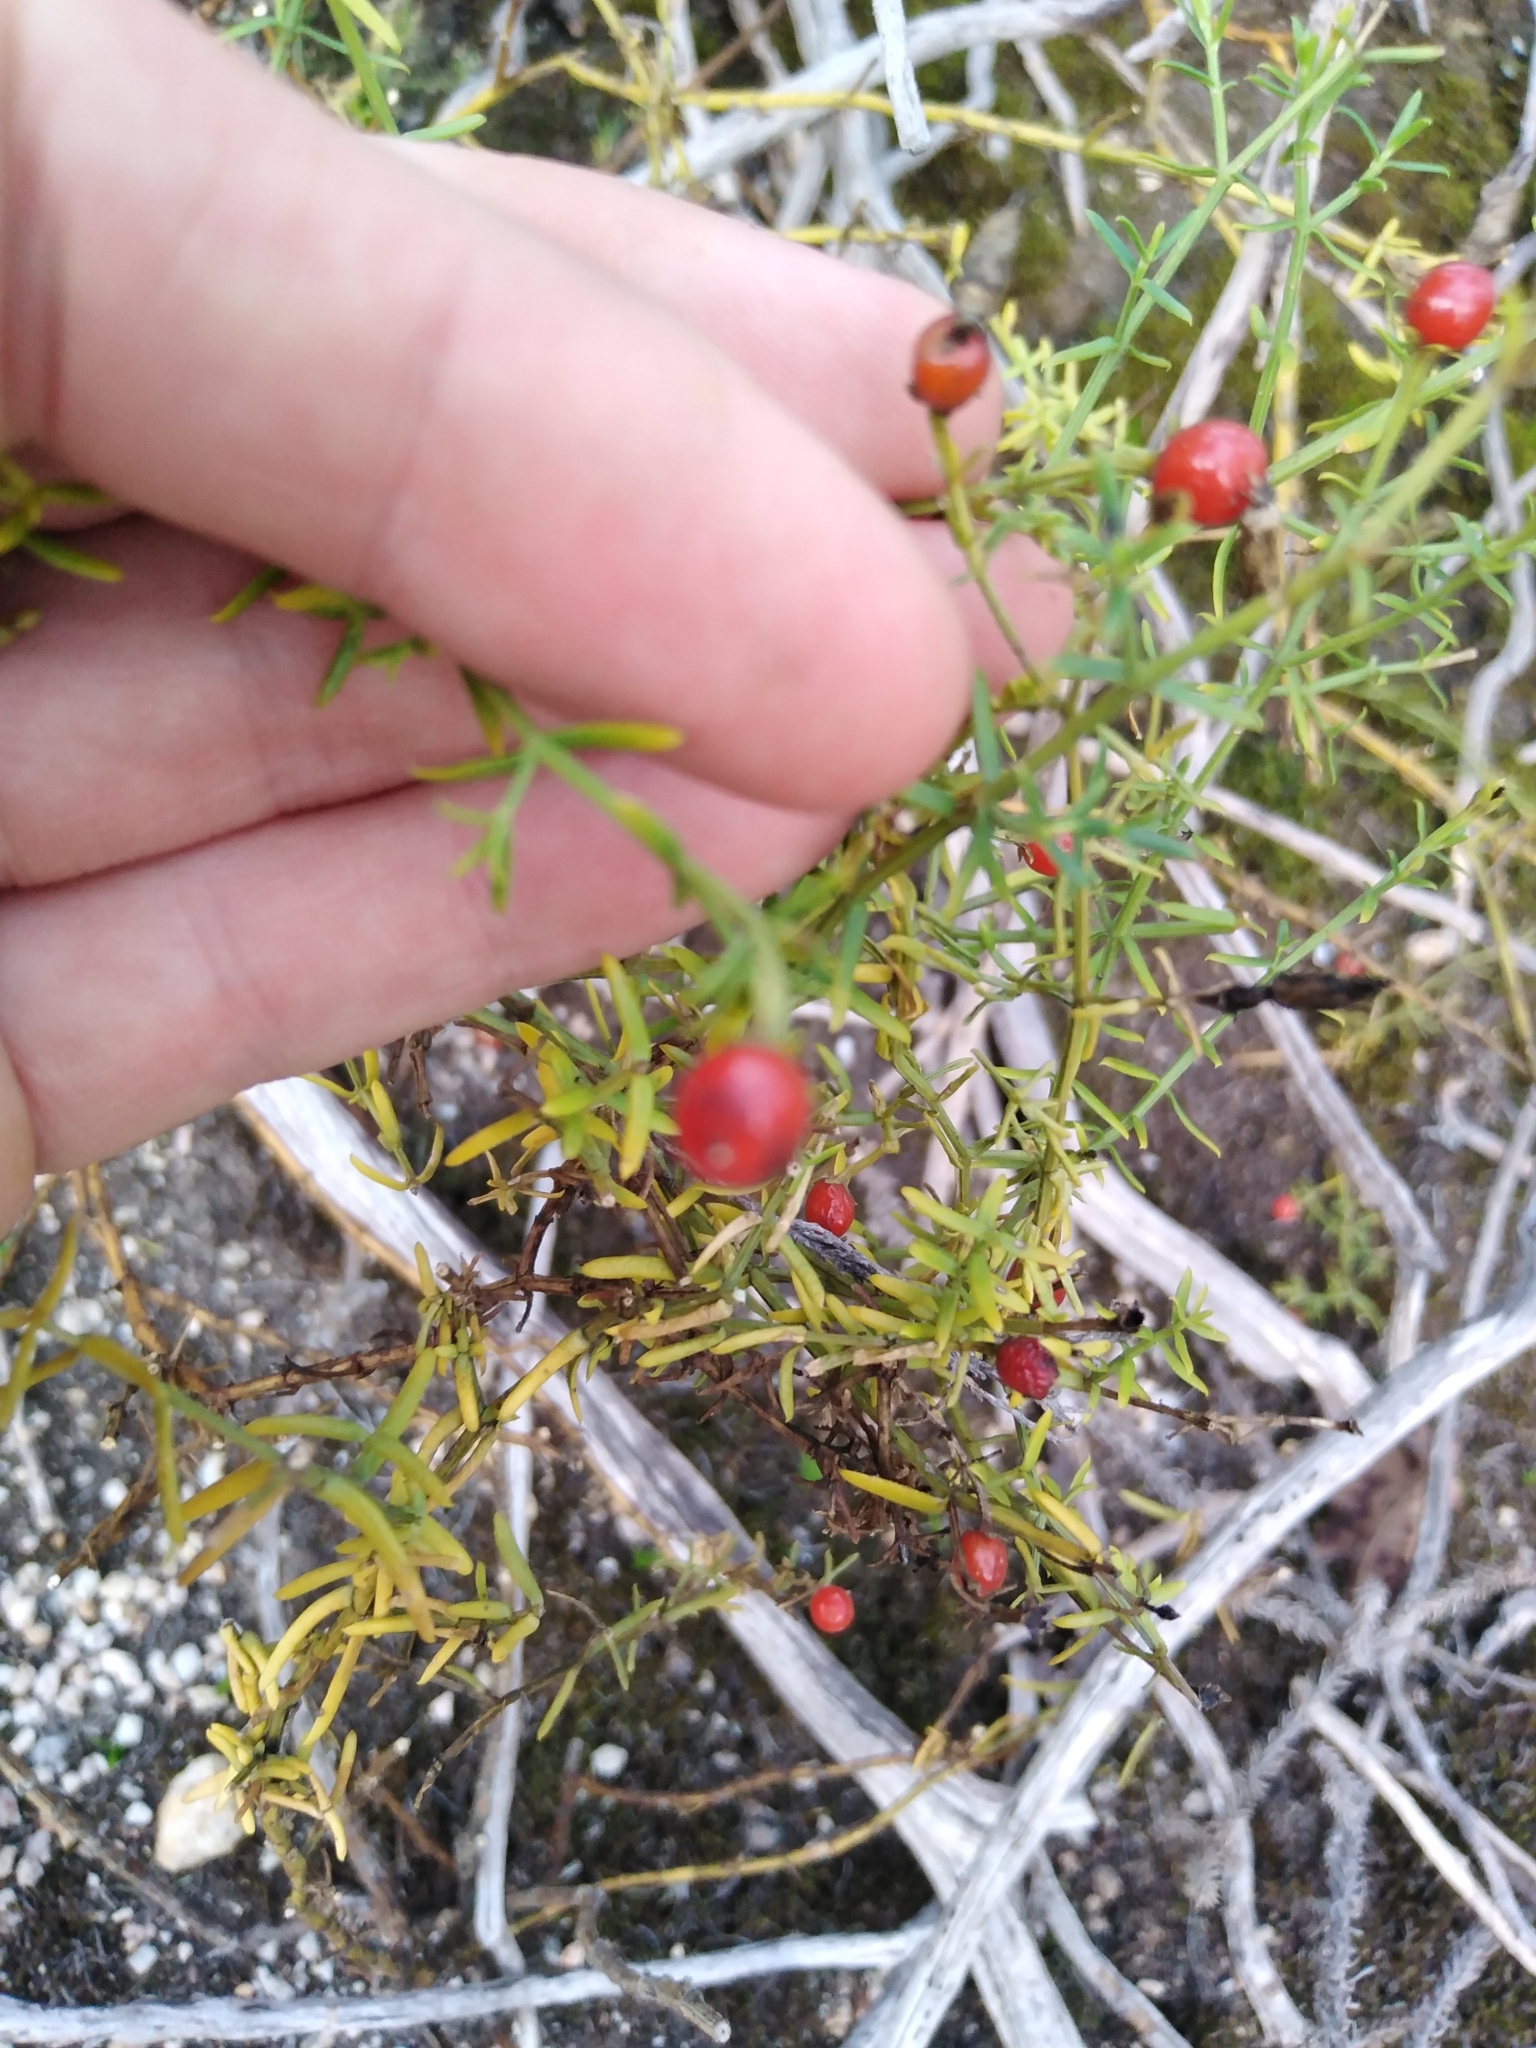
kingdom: Plantae
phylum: Tracheophyta
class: Magnoliopsida
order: Gentianales
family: Gentianaceae
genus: Chironia
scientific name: Chironia baccifera
